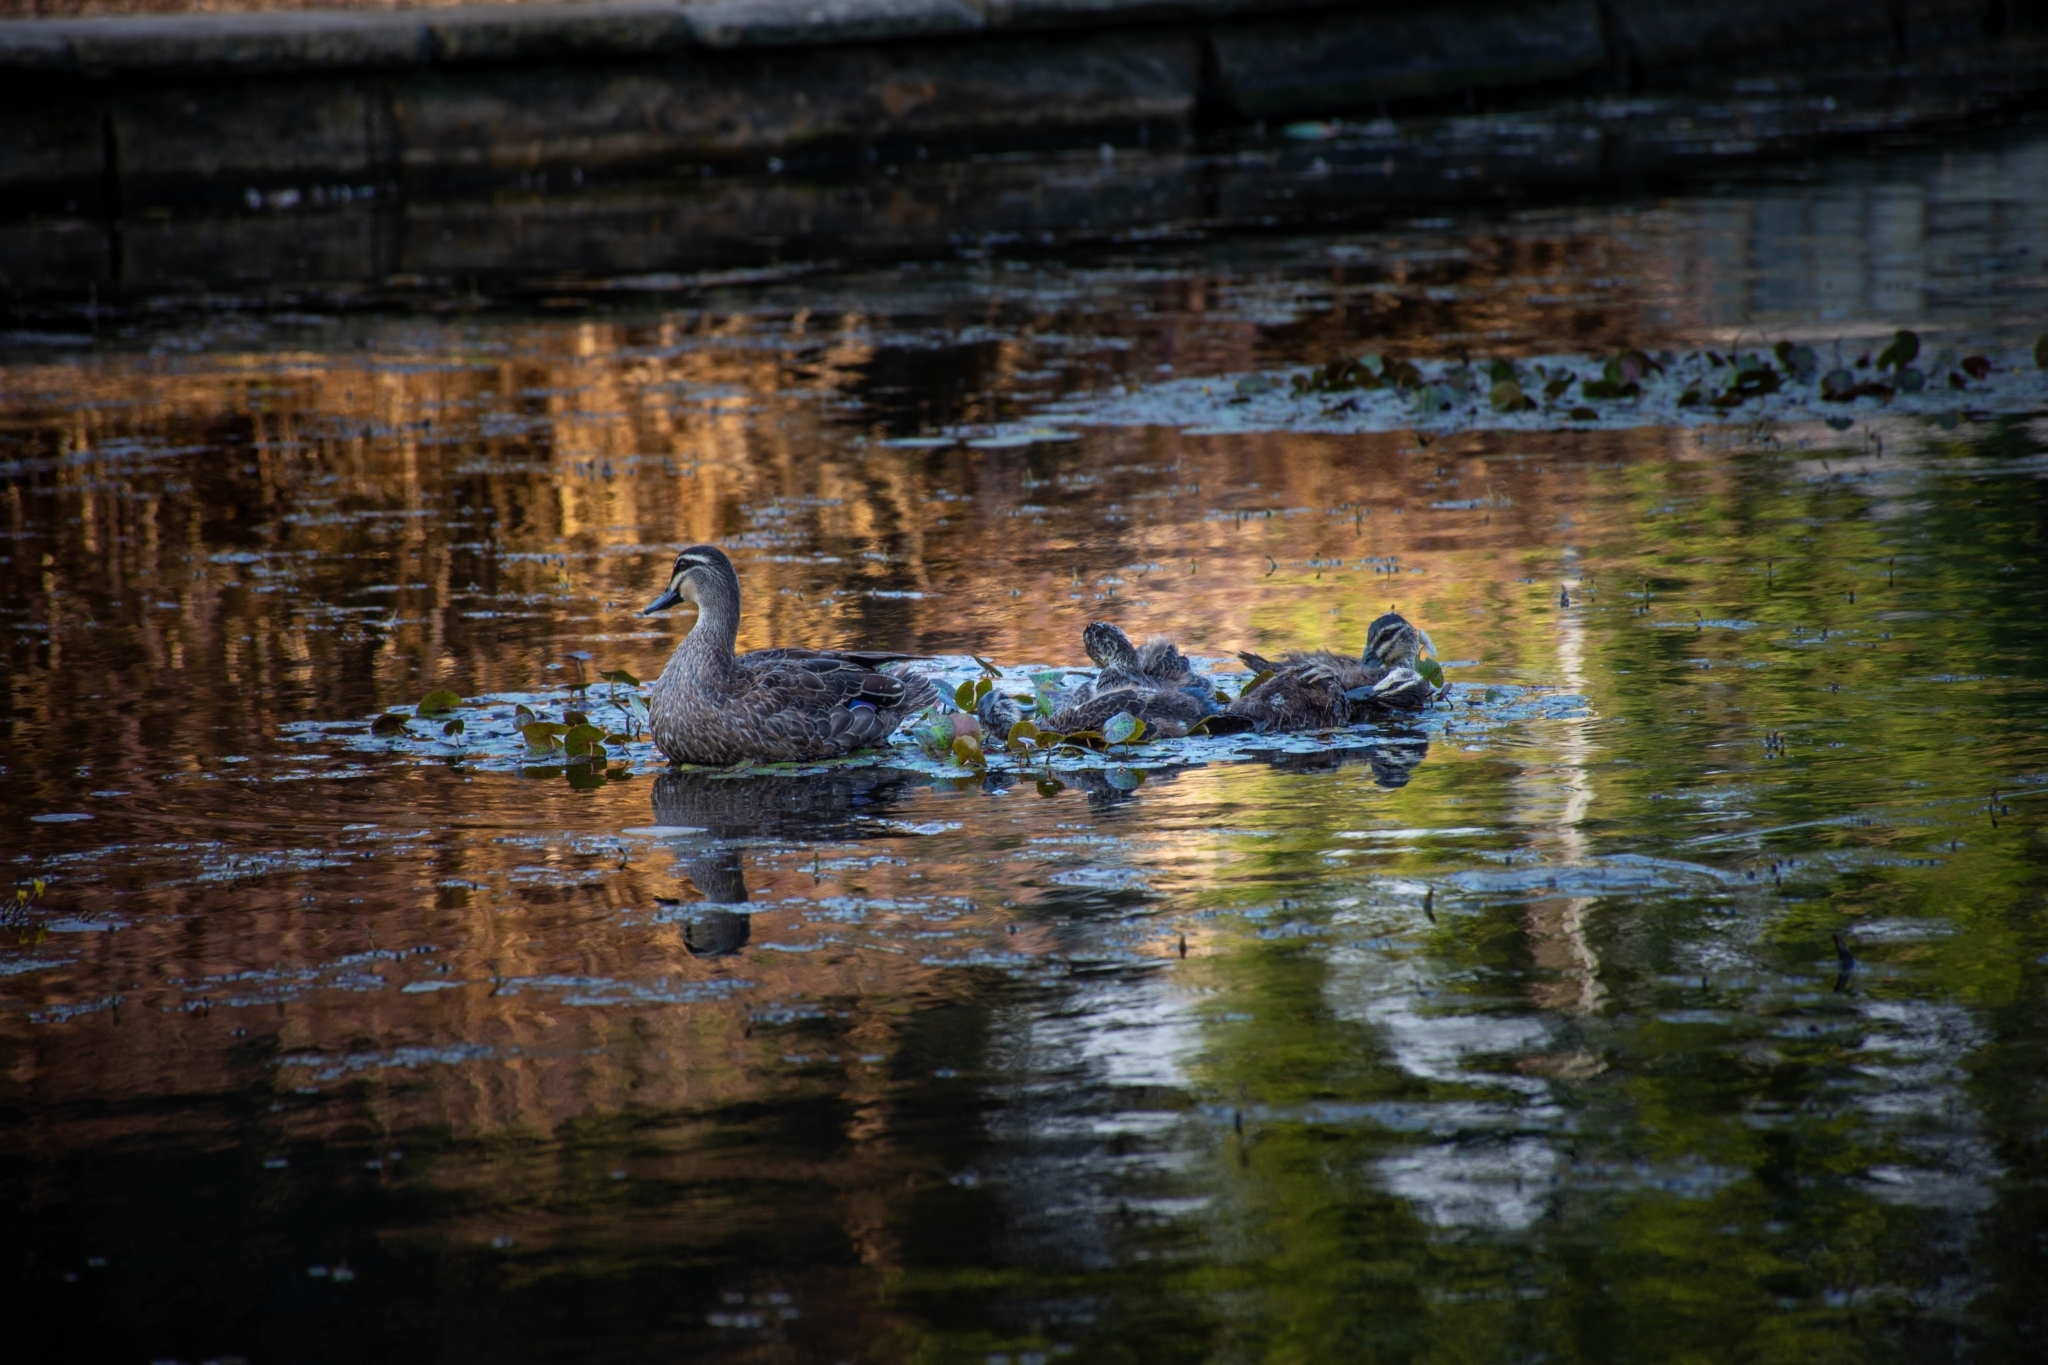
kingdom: Animalia
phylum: Chordata
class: Aves
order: Anseriformes
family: Anatidae
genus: Anas
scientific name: Anas superciliosa
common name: Pacific black duck
